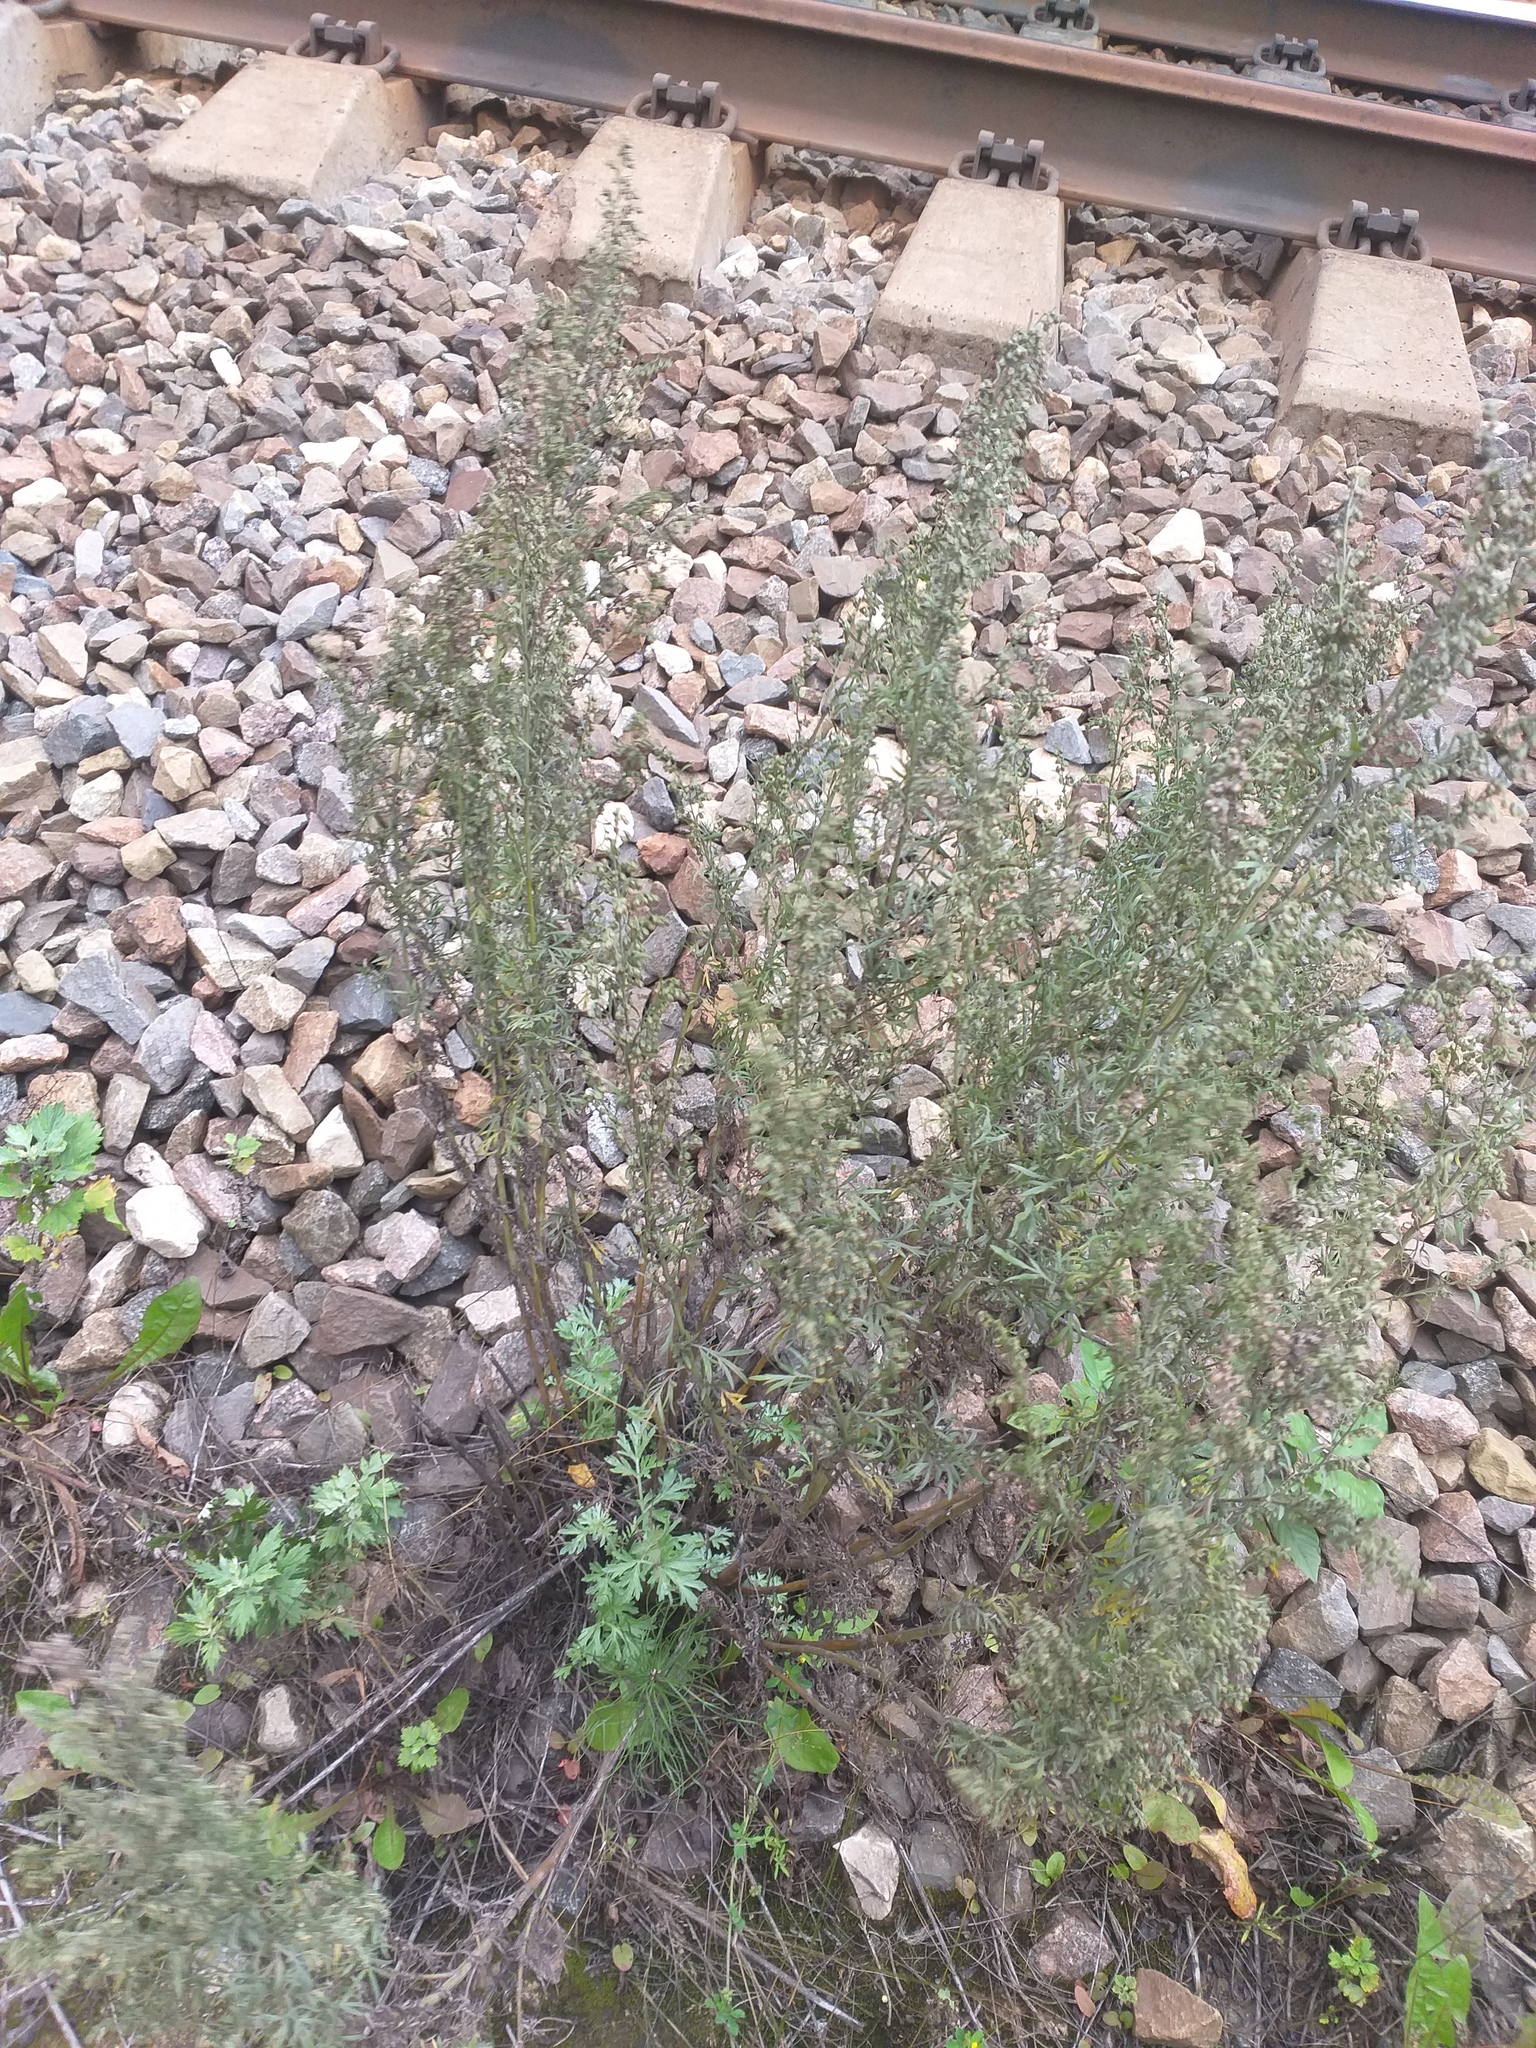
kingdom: Plantae
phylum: Tracheophyta
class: Magnoliopsida
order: Asterales
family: Asteraceae
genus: Artemisia
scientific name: Artemisia absinthium
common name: Wormwood
